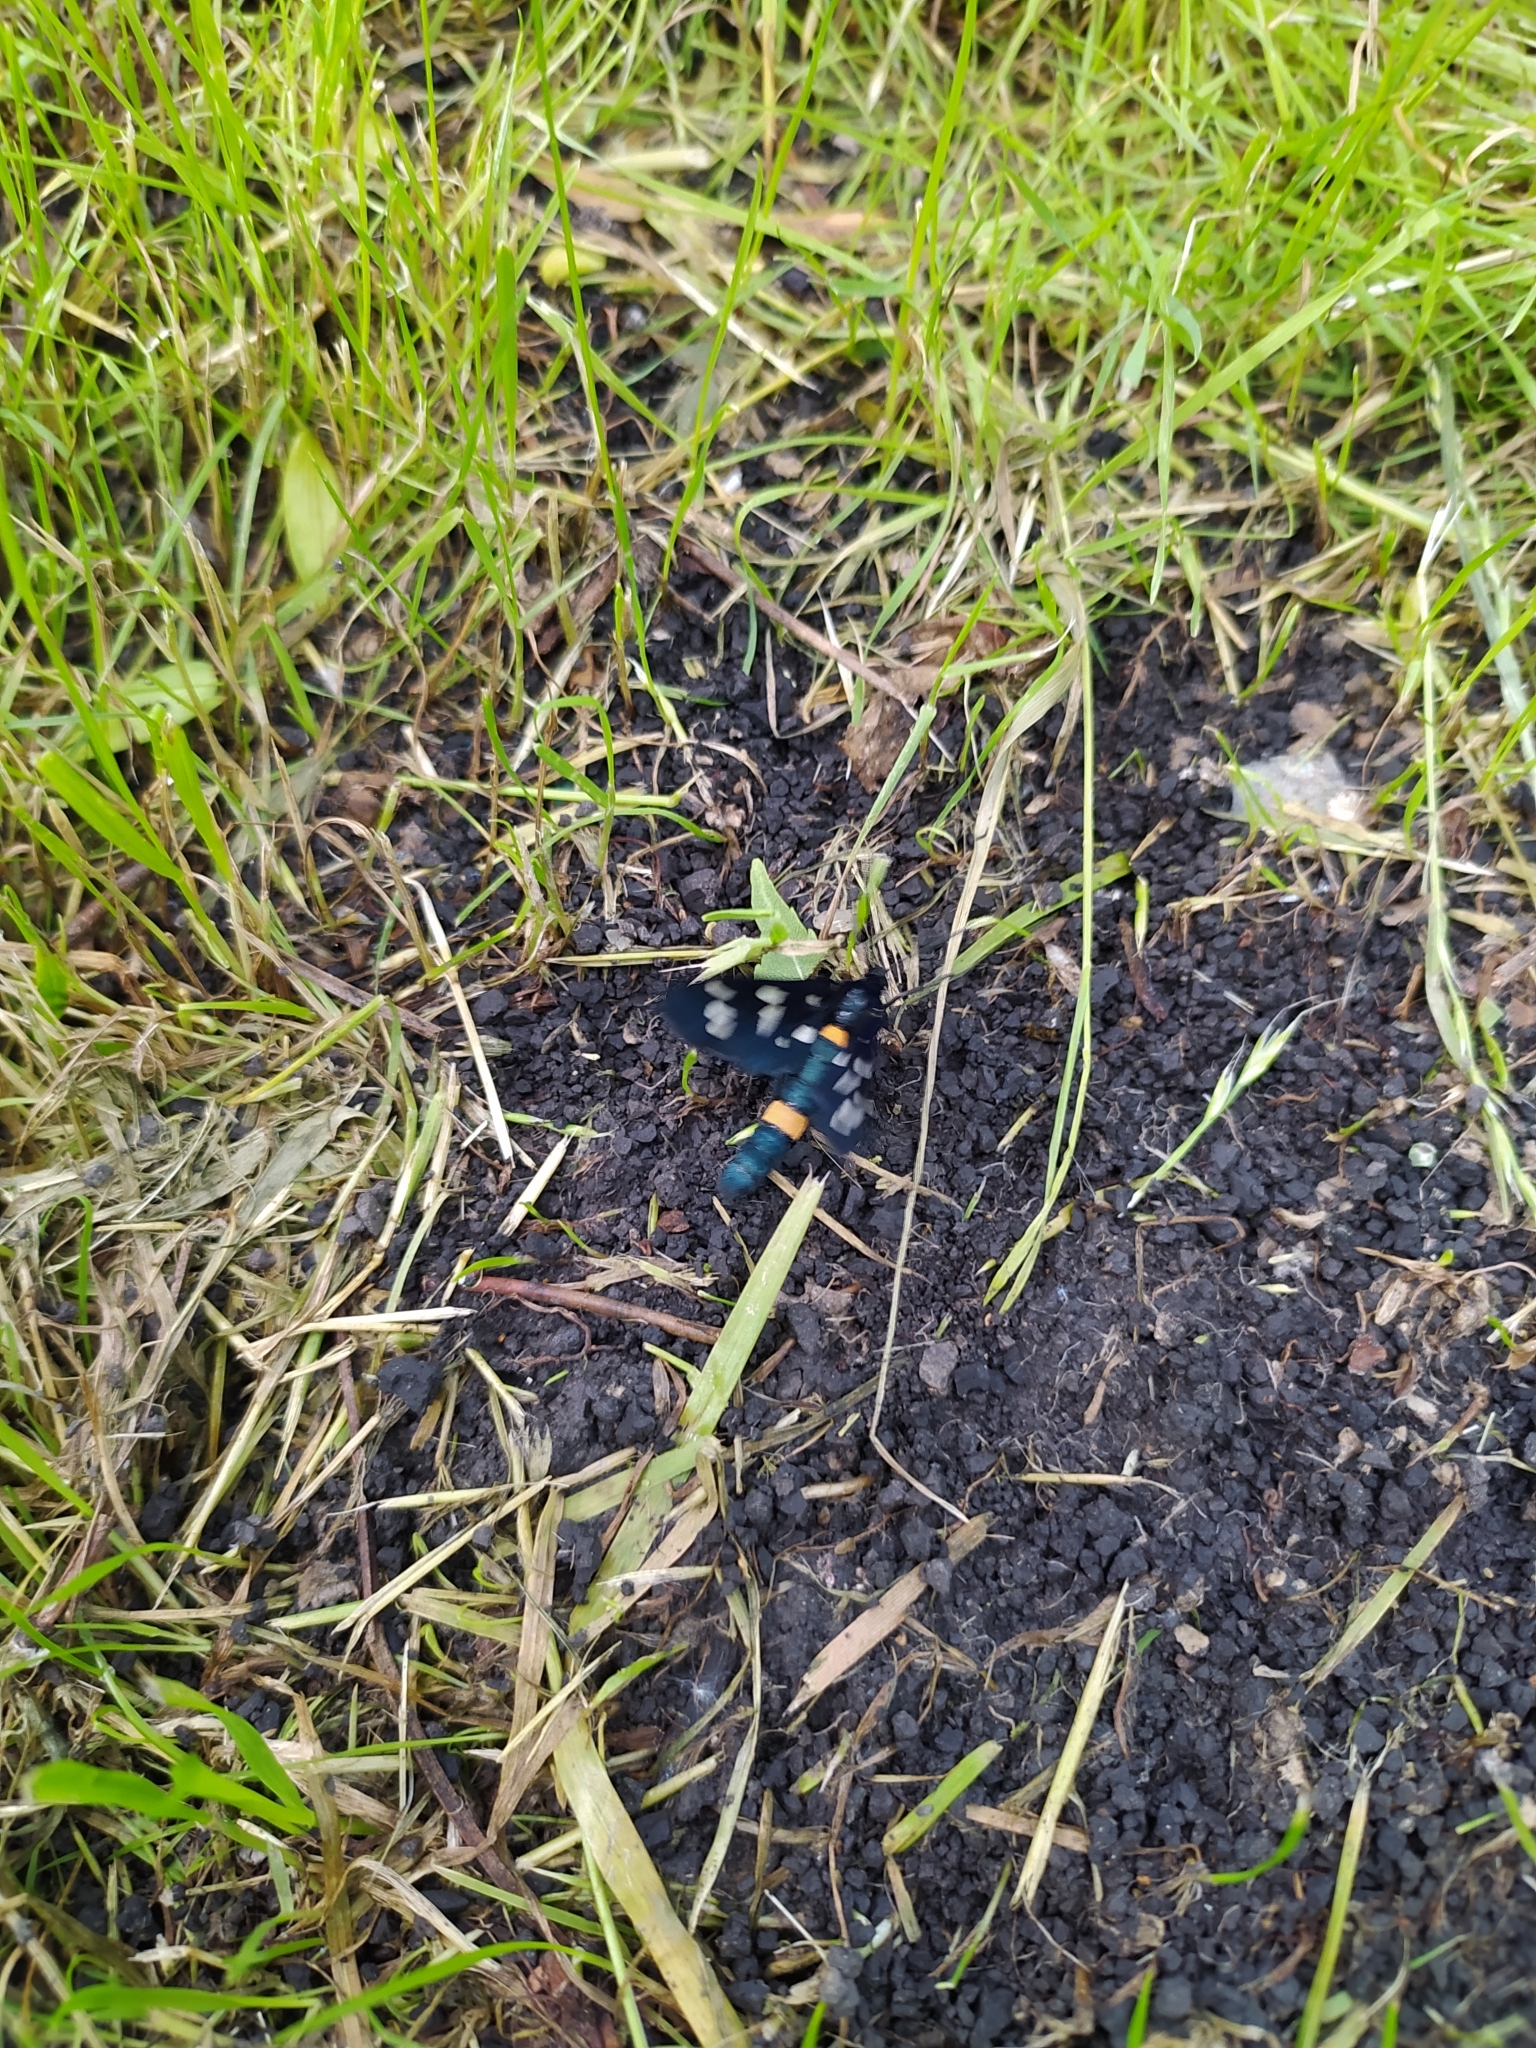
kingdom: Animalia
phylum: Arthropoda
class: Insecta
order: Lepidoptera
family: Erebidae
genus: Amata
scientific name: Amata nigricornis
